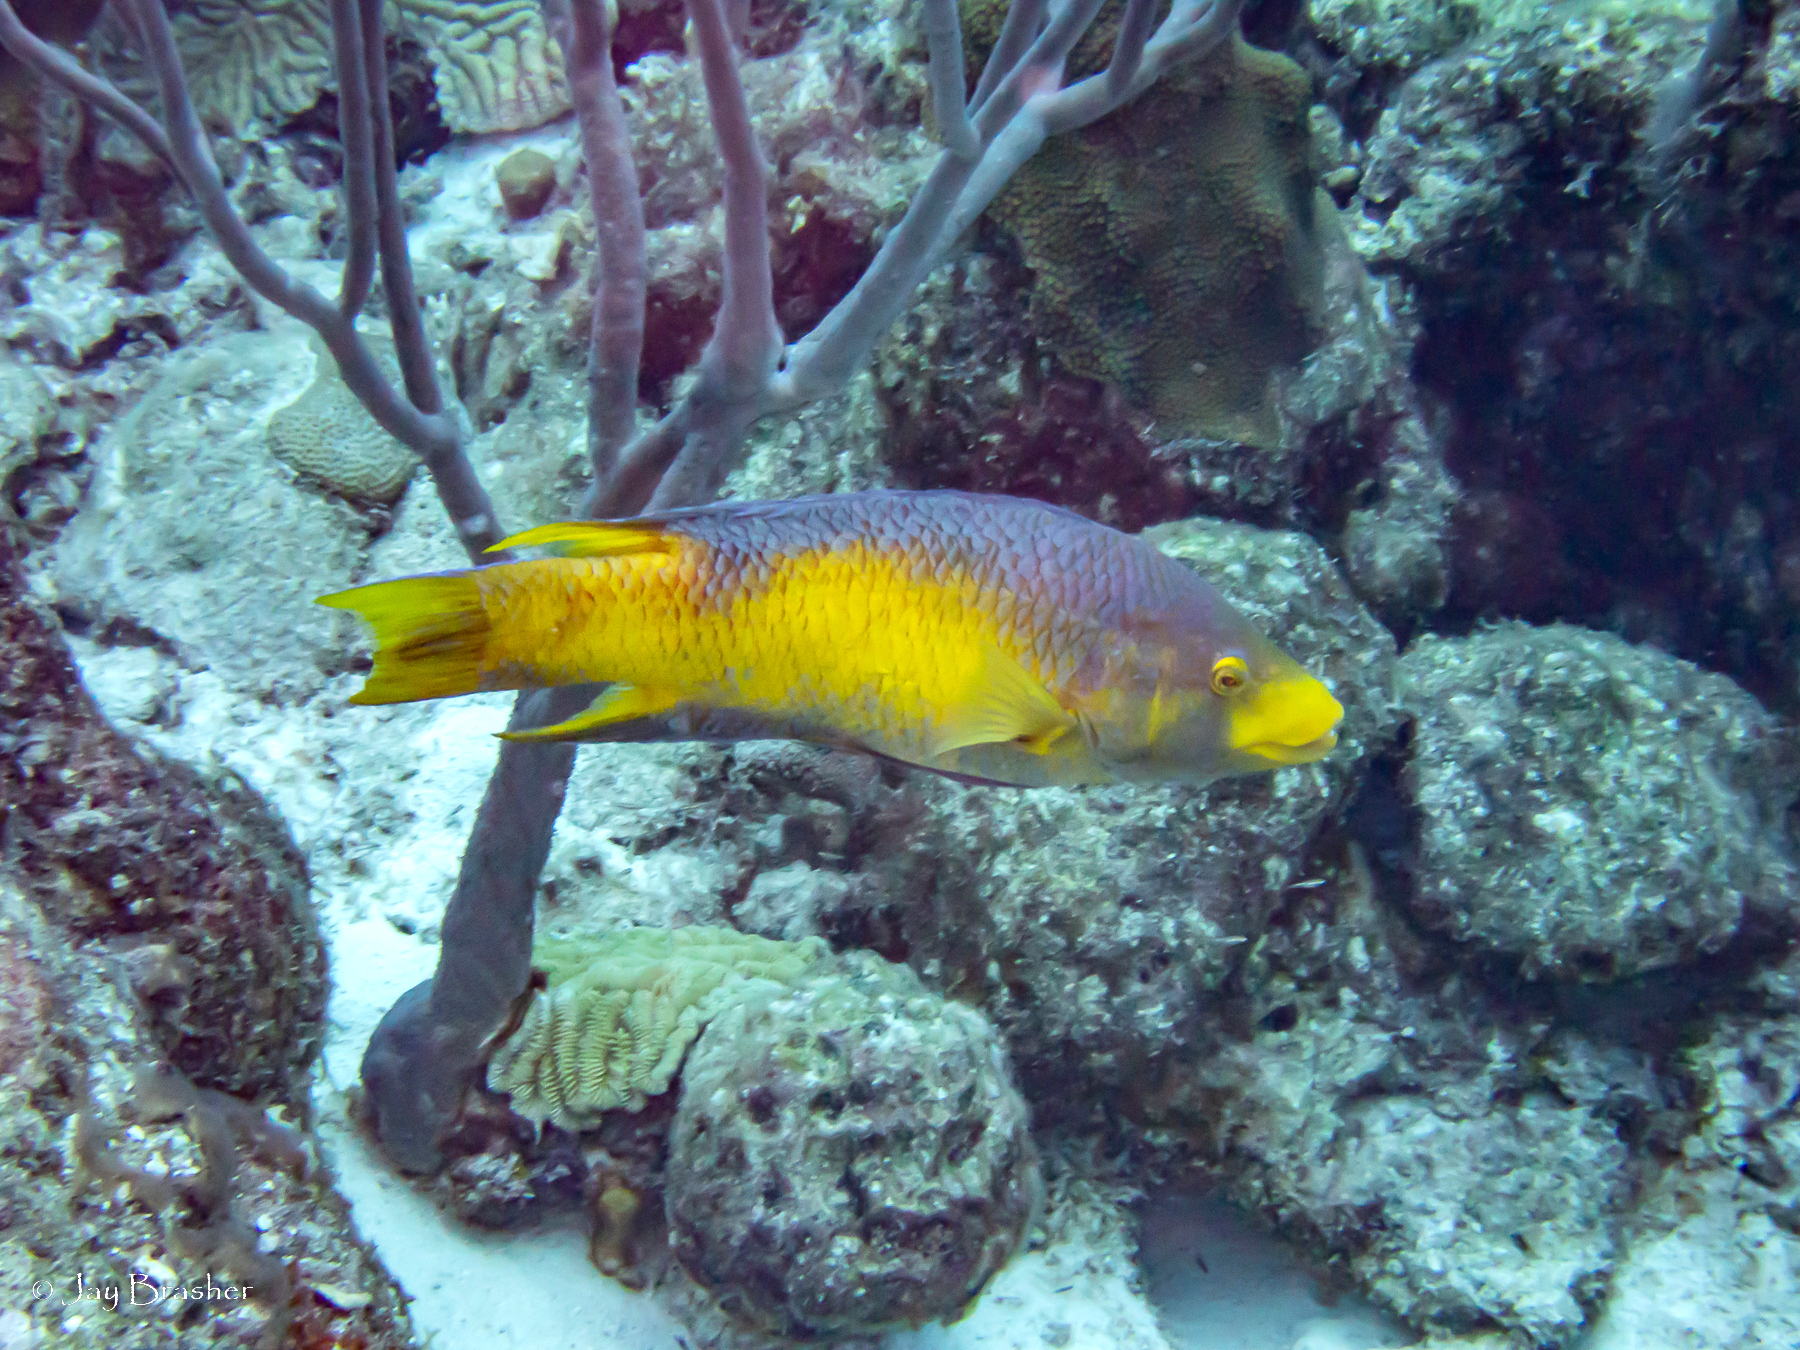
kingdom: Animalia
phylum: Cnidaria
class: Anthozoa
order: Scleractinia
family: Meandrinidae
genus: Meandrina
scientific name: Meandrina meandrites
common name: Maze coral
